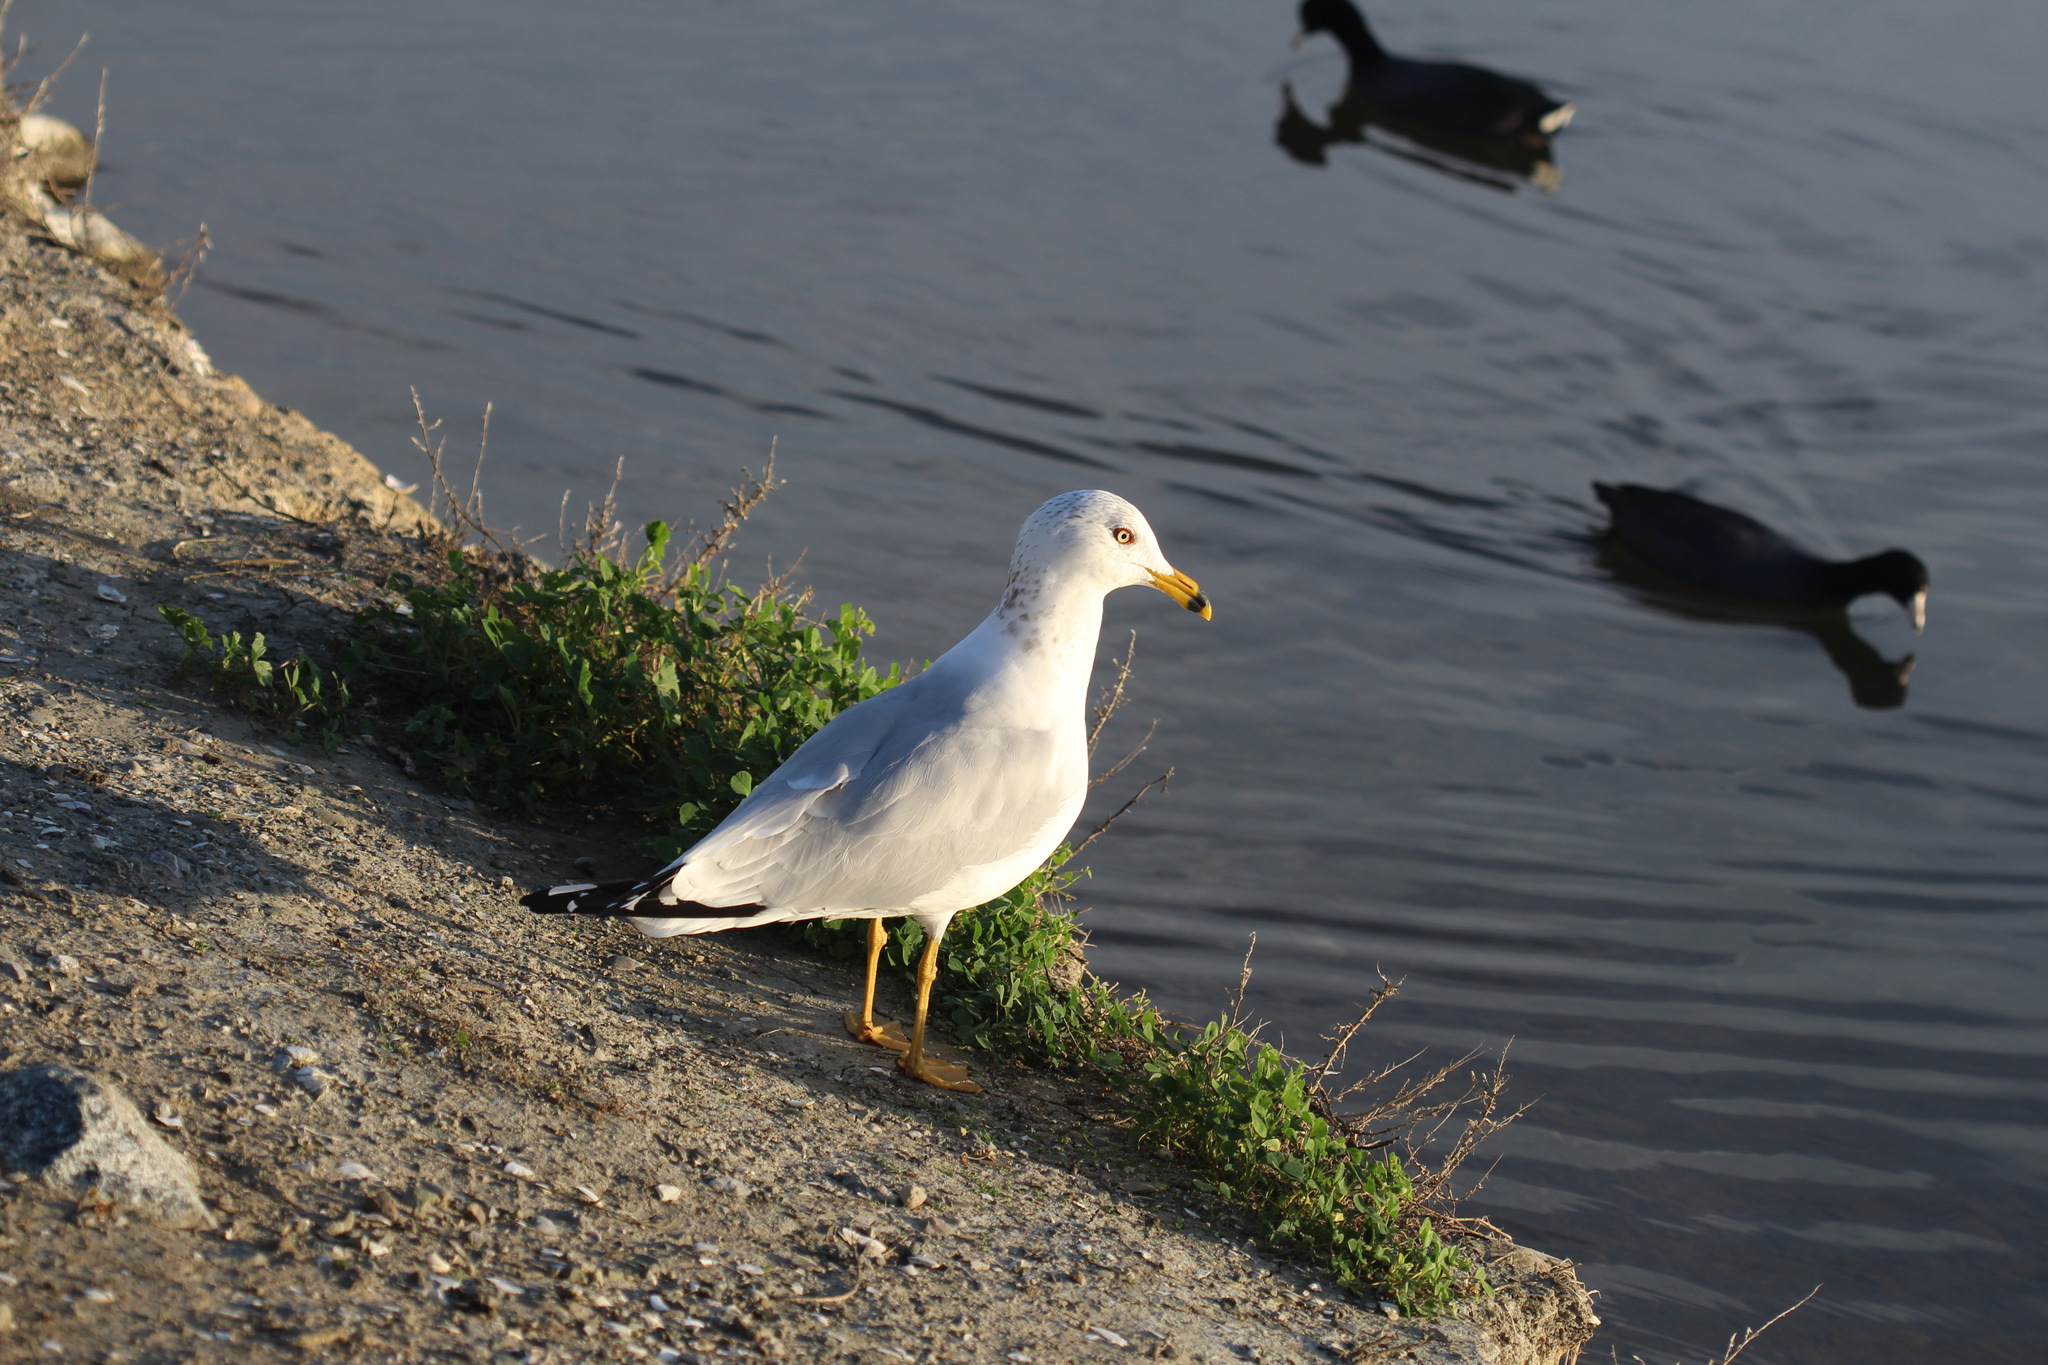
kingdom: Animalia
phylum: Chordata
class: Aves
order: Charadriiformes
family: Laridae
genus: Larus
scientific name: Larus delawarensis
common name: Ring-billed gull
